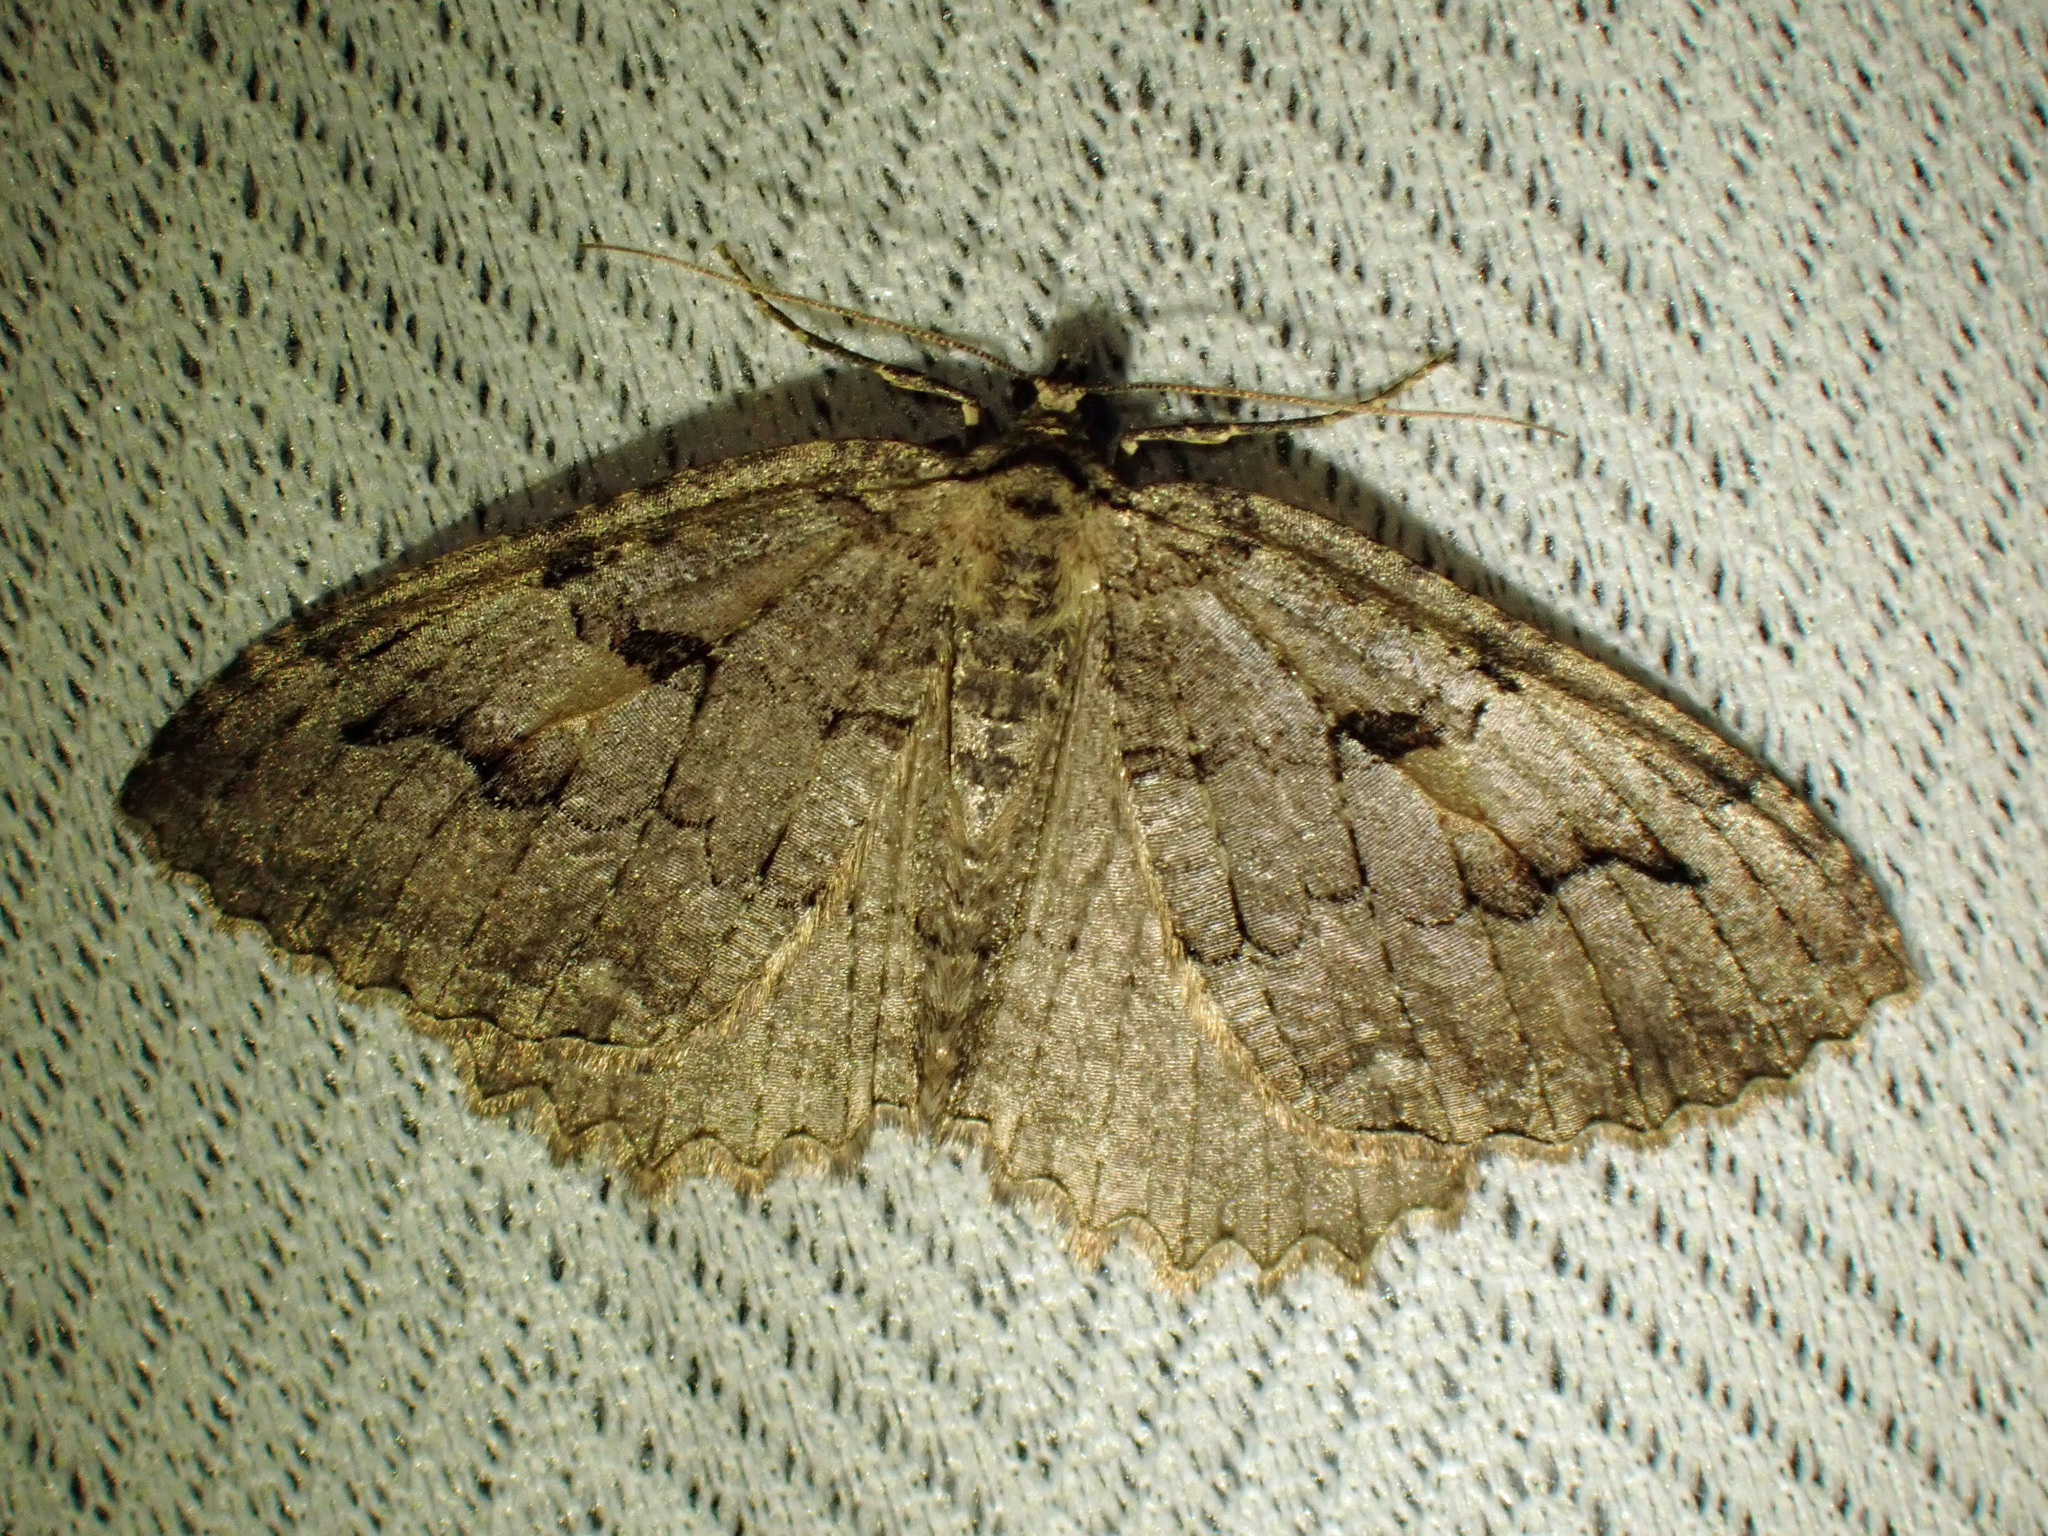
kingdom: Animalia
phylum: Arthropoda
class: Insecta
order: Lepidoptera
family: Geometridae
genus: Triphosa
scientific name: Triphosa haesitata
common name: Tissue moth
